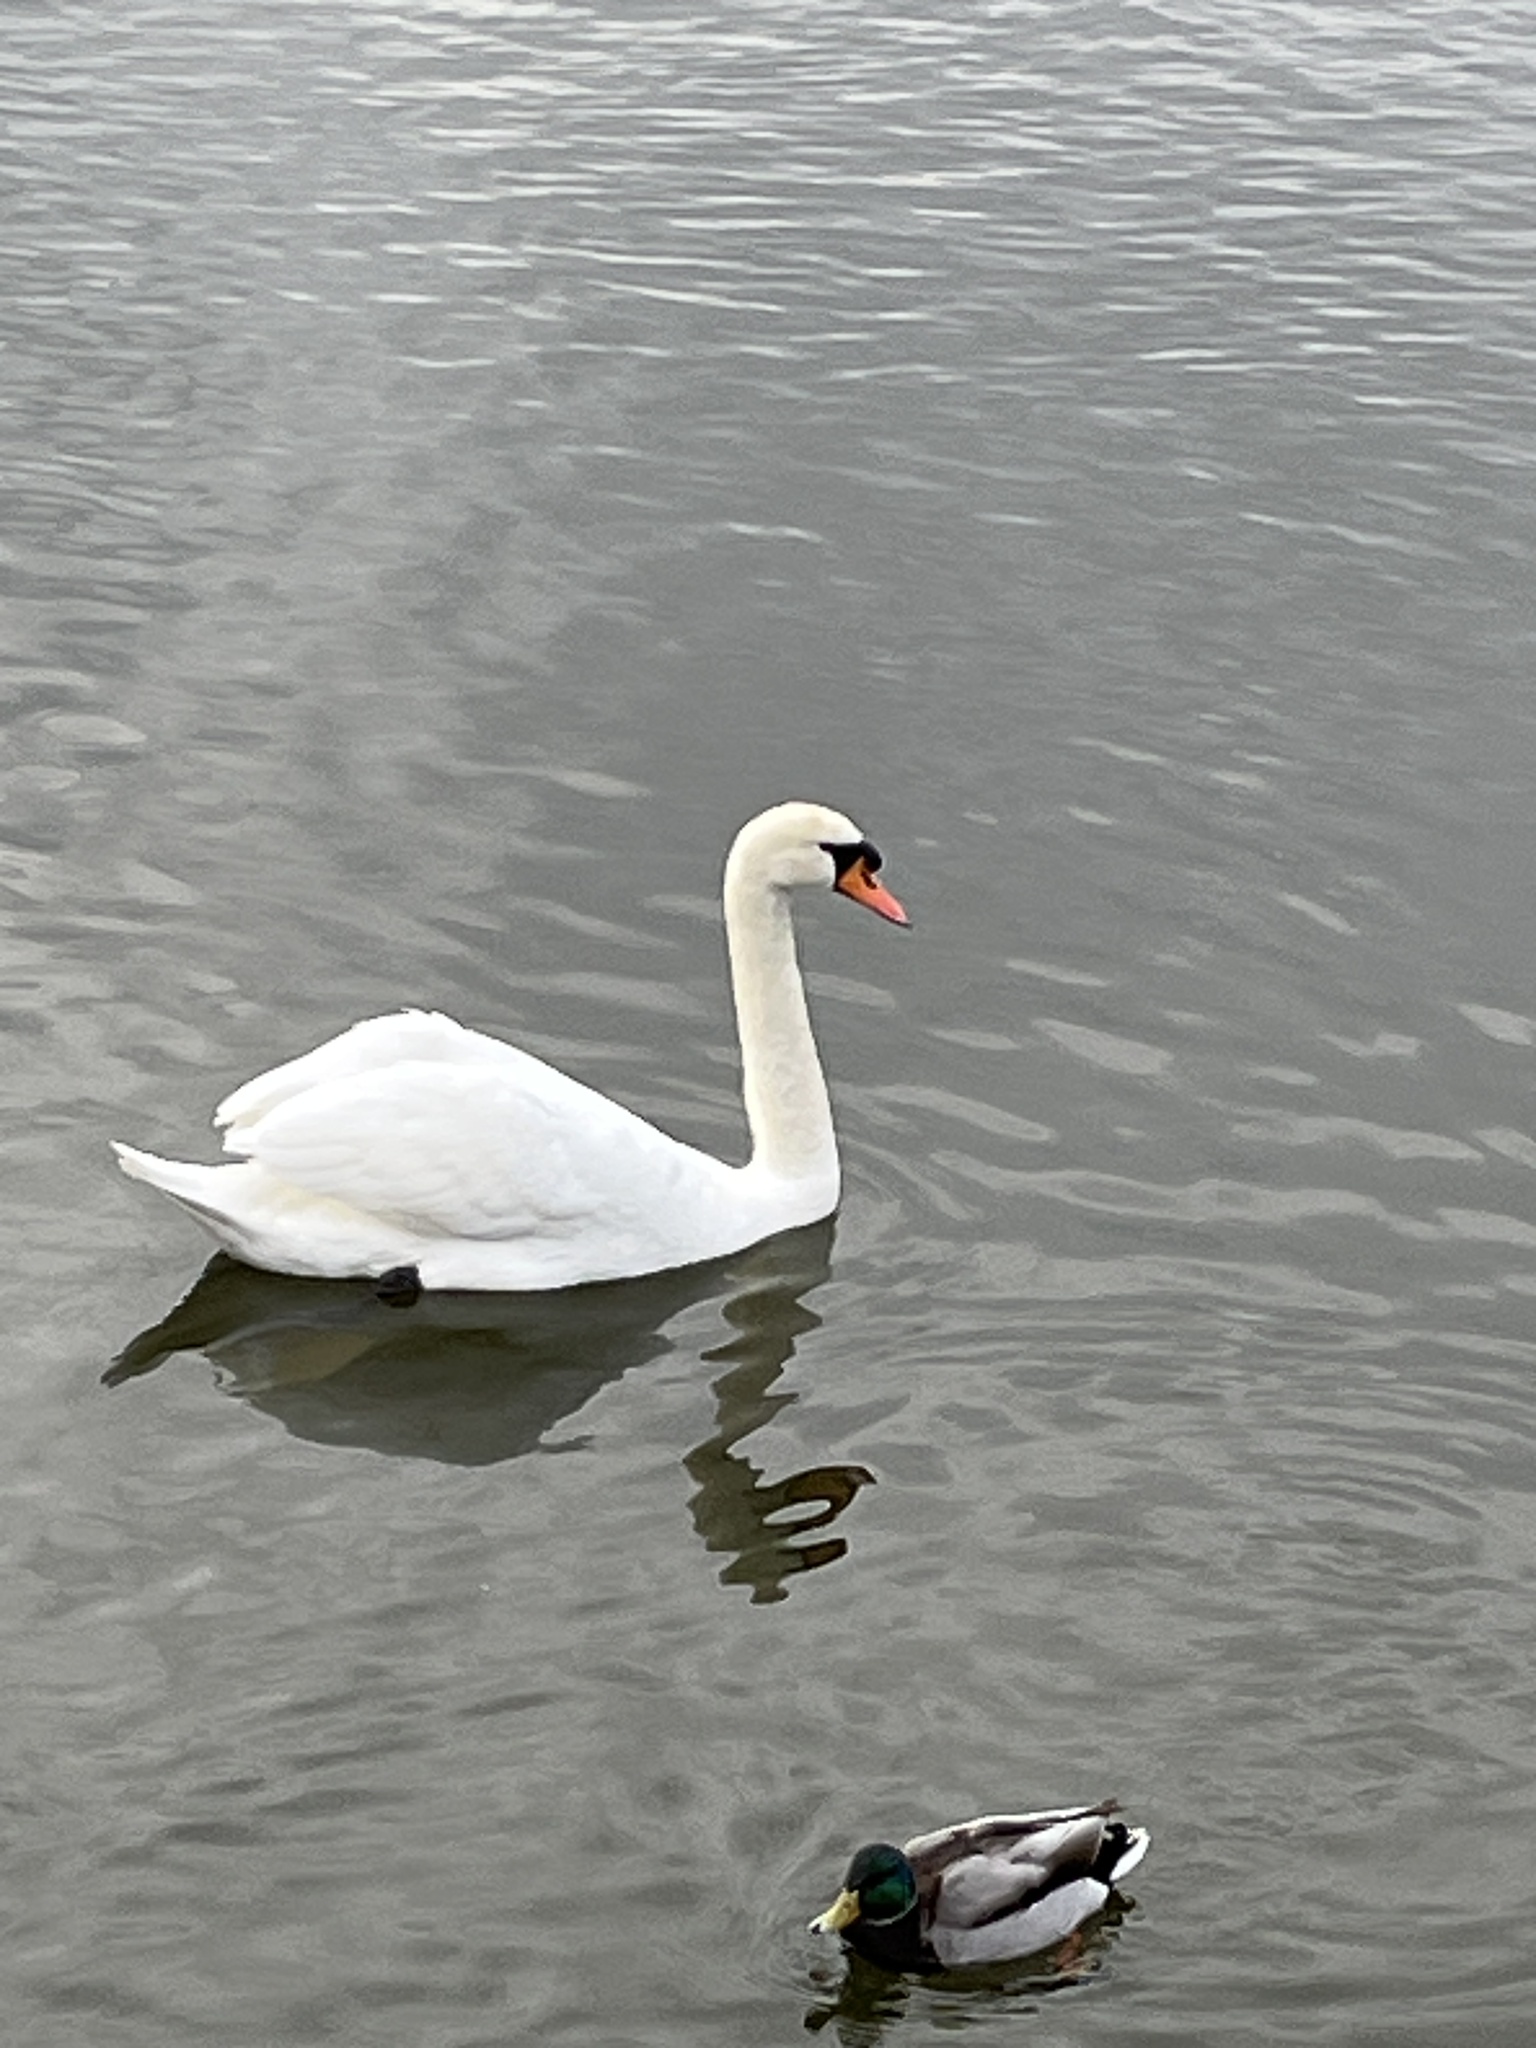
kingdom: Animalia
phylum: Chordata
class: Aves
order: Anseriformes
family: Anatidae
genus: Cygnus
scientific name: Cygnus olor
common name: Mute swan
